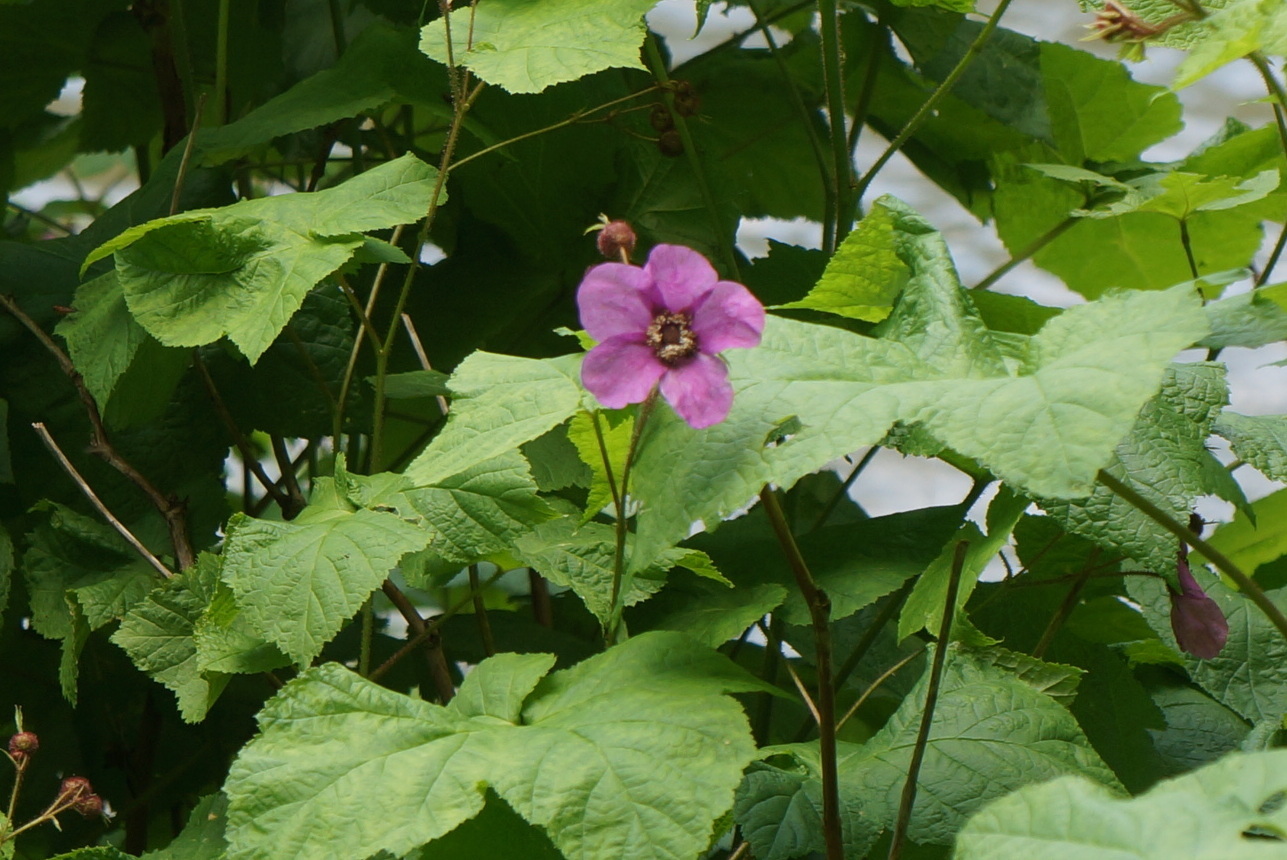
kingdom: Plantae
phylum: Tracheophyta
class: Magnoliopsida
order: Rosales
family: Rosaceae
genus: Rubus
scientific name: Rubus odoratus
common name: Purple-flowered raspberry
